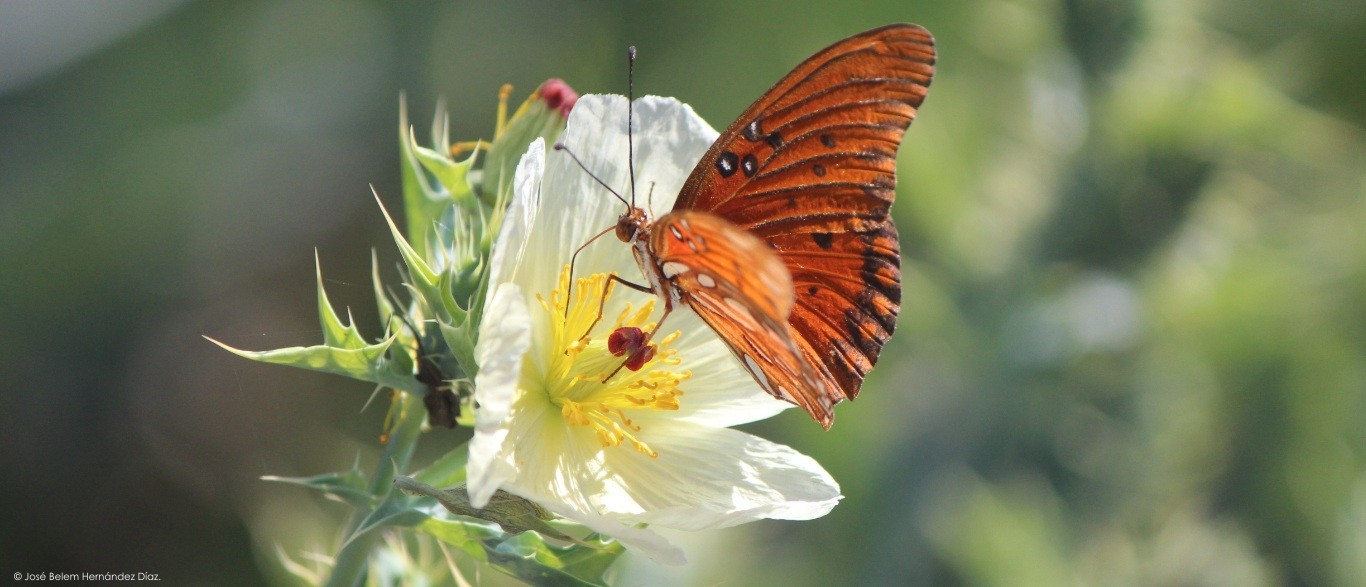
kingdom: Animalia
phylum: Arthropoda
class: Insecta
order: Lepidoptera
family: Nymphalidae
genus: Dione
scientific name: Dione vanillae
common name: Gulf fritillary
